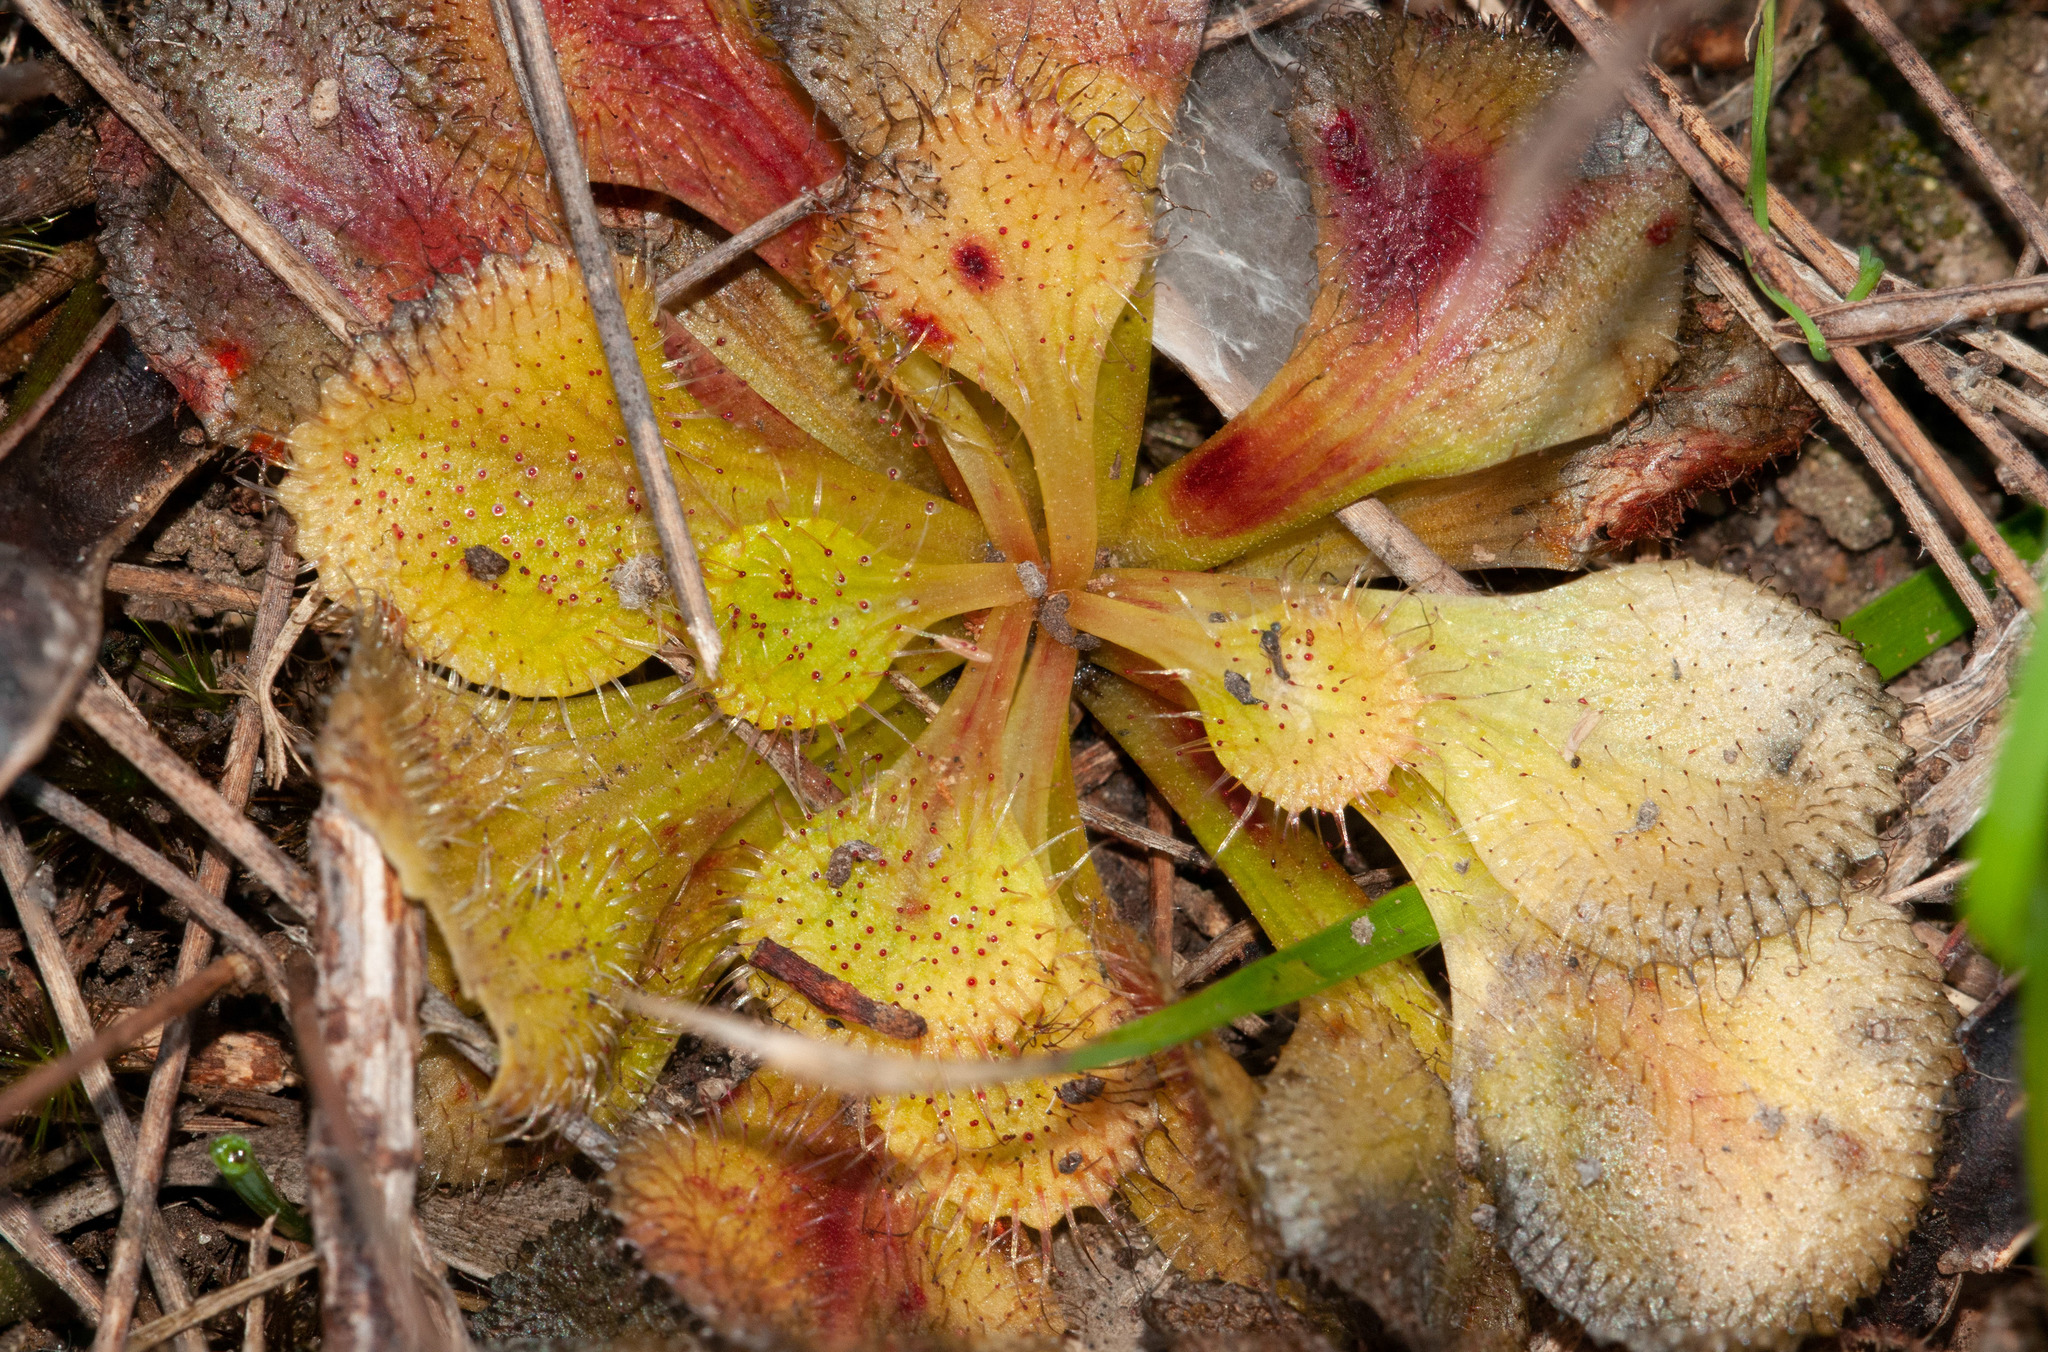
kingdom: Plantae
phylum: Tracheophyta
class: Magnoliopsida
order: Caryophyllales
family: Droseraceae
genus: Drosera
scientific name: Drosera whittakeri
